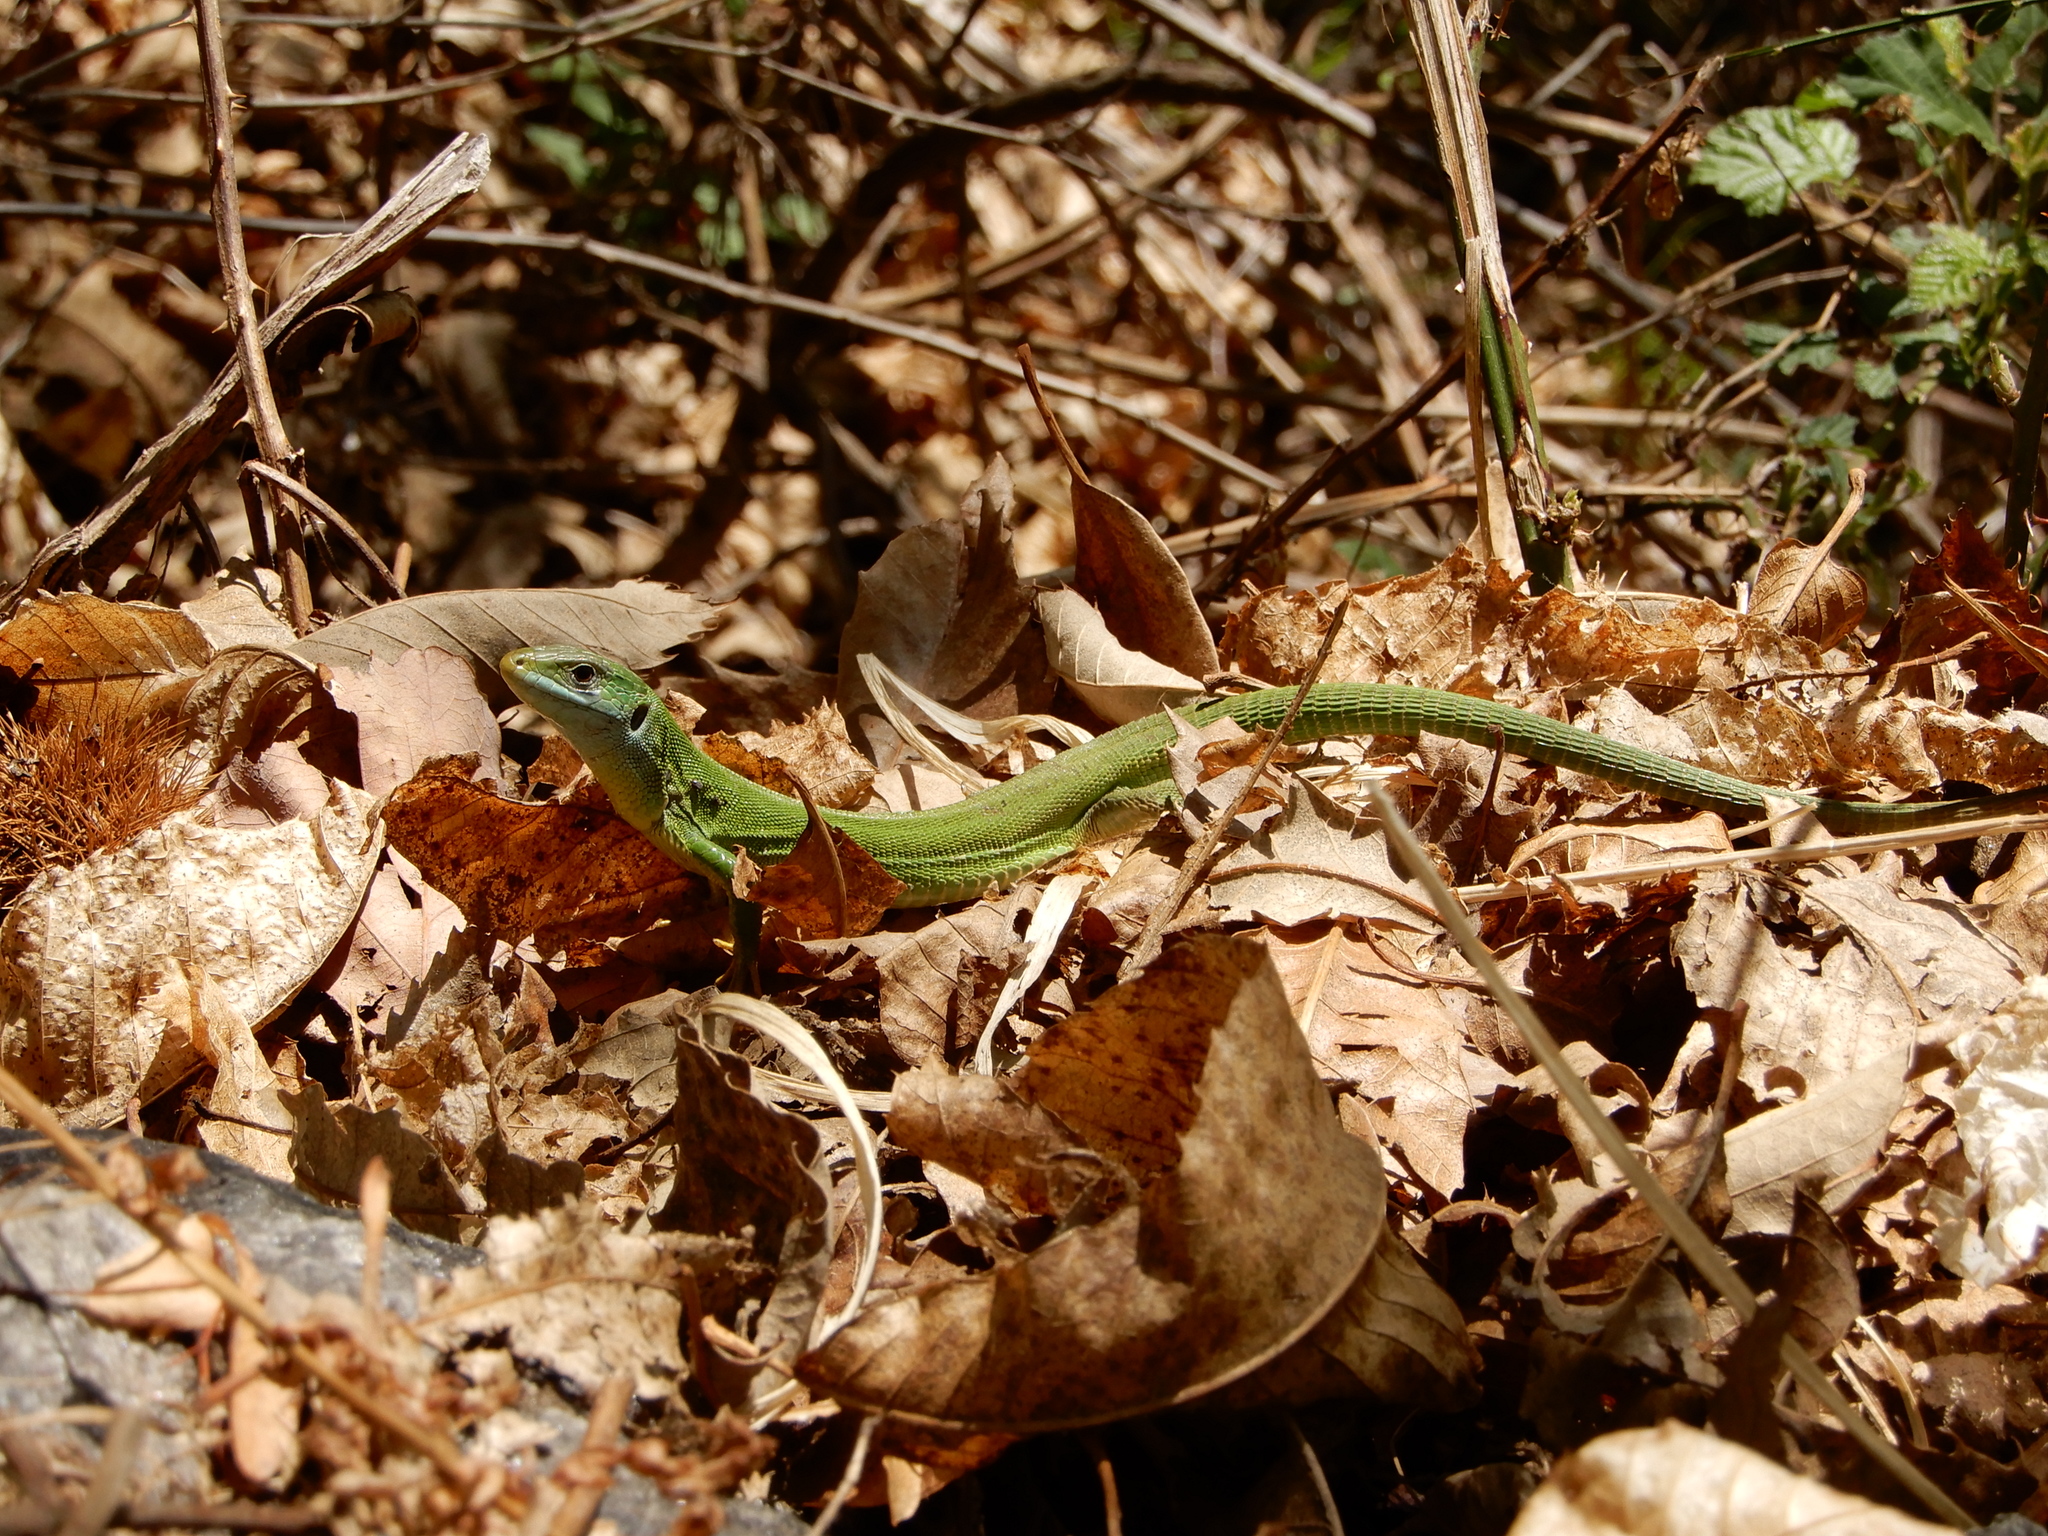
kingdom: Animalia
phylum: Chordata
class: Squamata
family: Lacertidae
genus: Lacerta
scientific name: Lacerta bilineata
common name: Western green lizard
